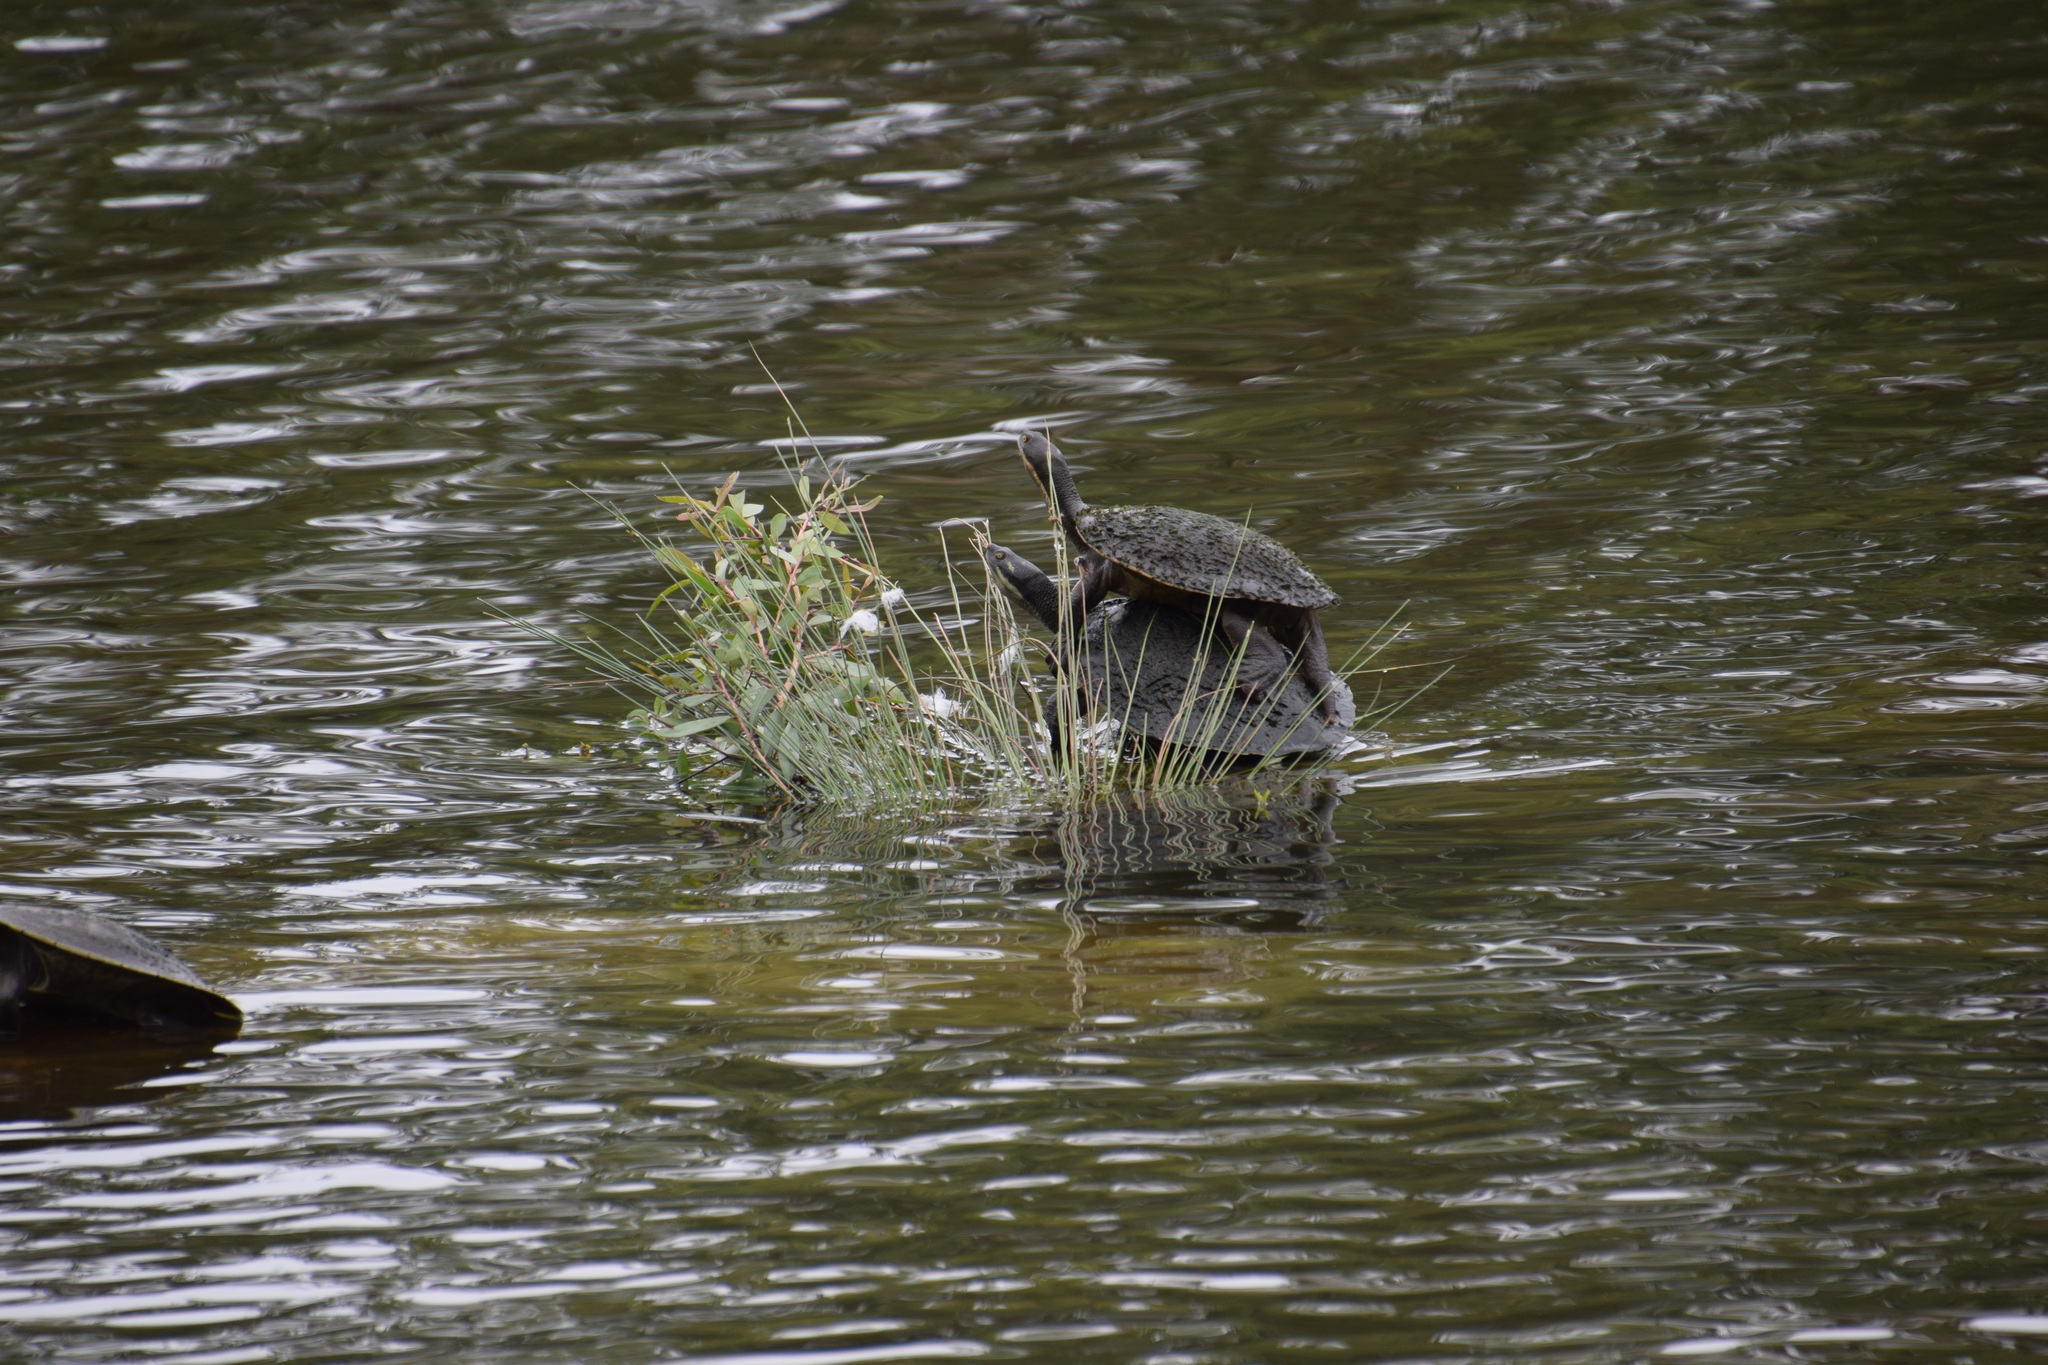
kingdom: Animalia
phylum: Chordata
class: Testudines
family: Chelidae
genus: Emydura
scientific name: Emydura macquarii
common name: Murray river turtle
